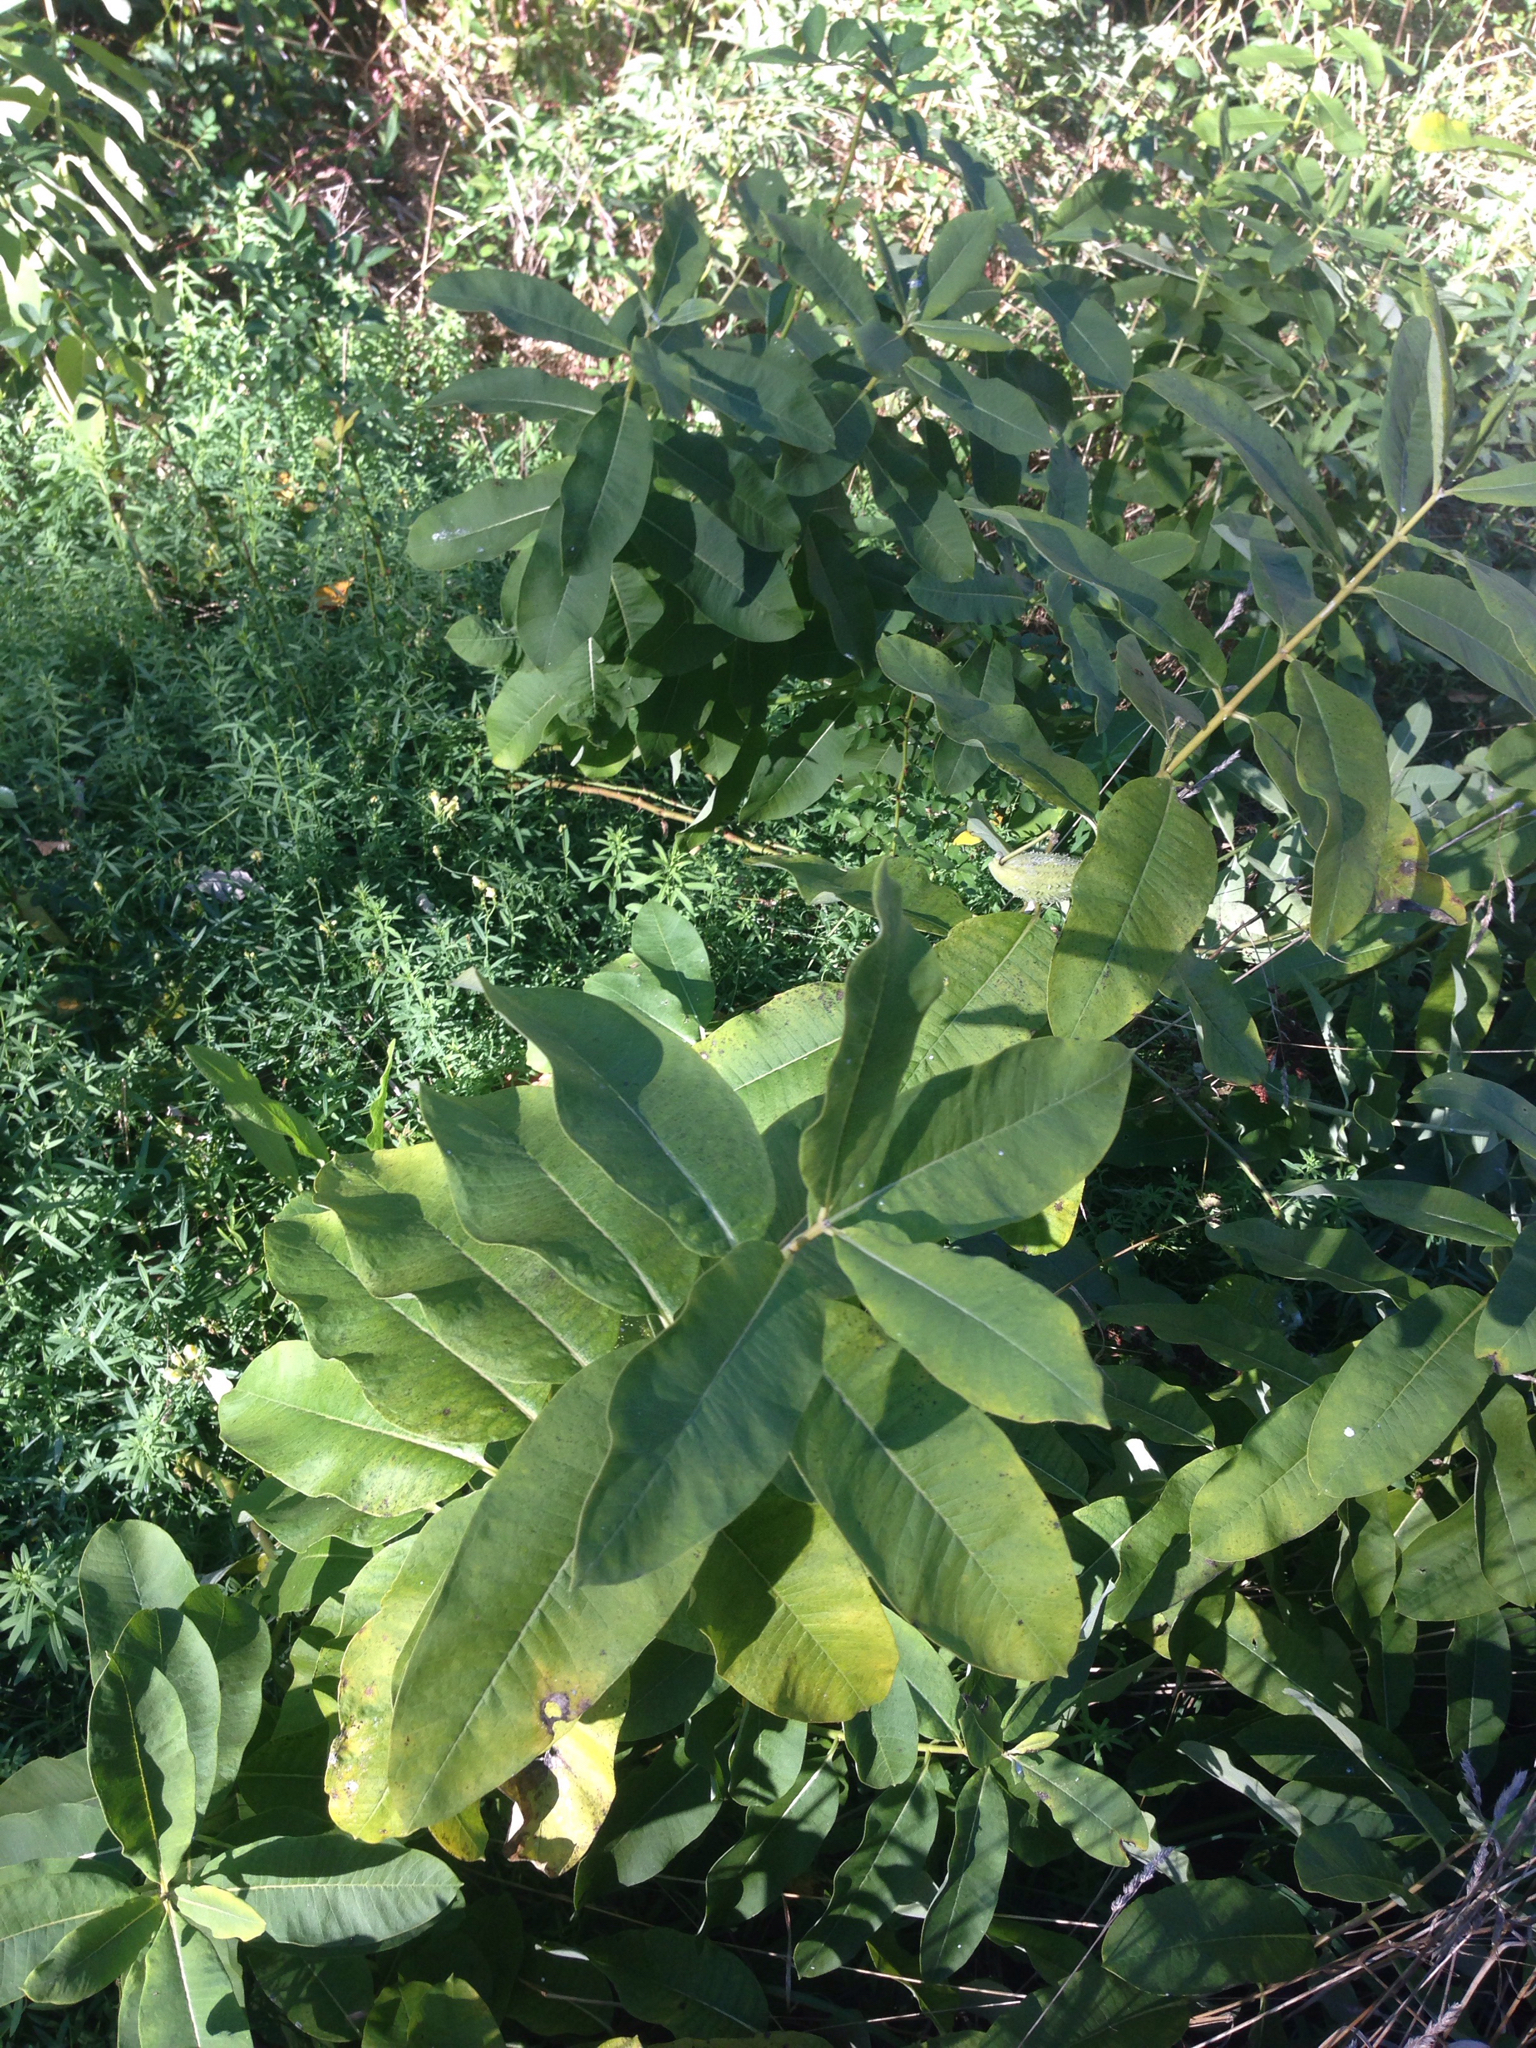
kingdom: Plantae
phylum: Tracheophyta
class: Magnoliopsida
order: Gentianales
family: Apocynaceae
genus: Asclepias
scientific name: Asclepias syriaca
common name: Common milkweed
